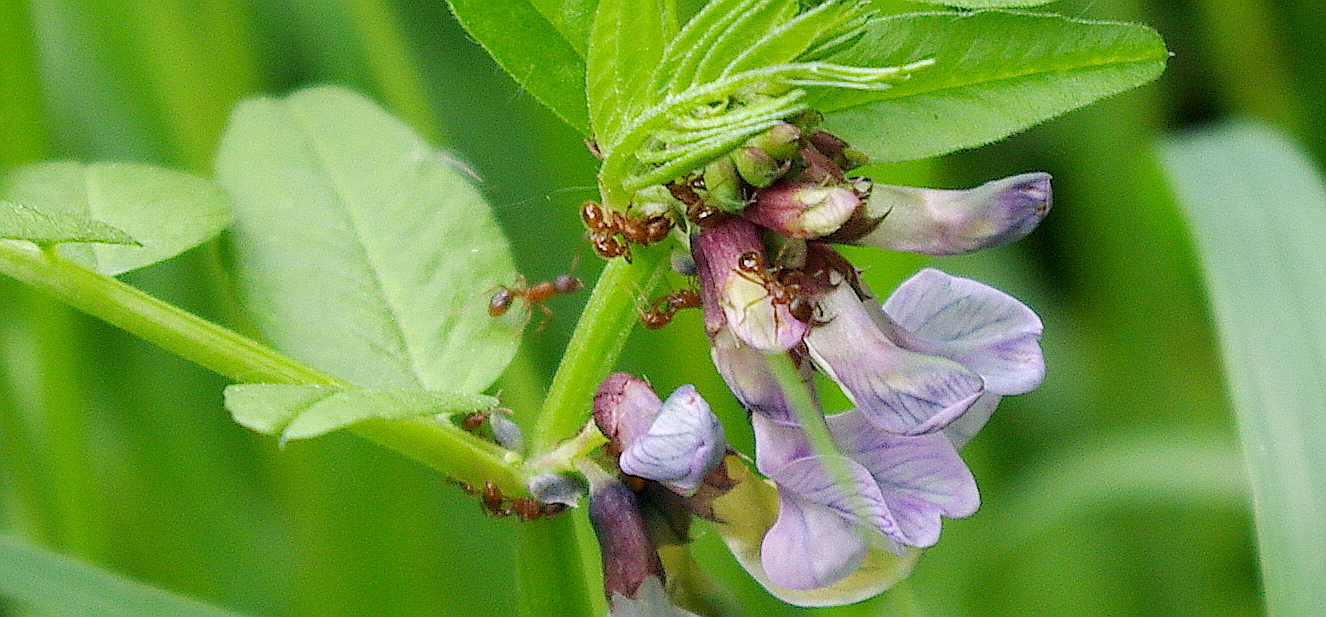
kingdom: Plantae
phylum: Tracheophyta
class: Magnoliopsida
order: Fabales
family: Fabaceae
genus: Vicia
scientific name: Vicia sepium
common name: Bush vetch
